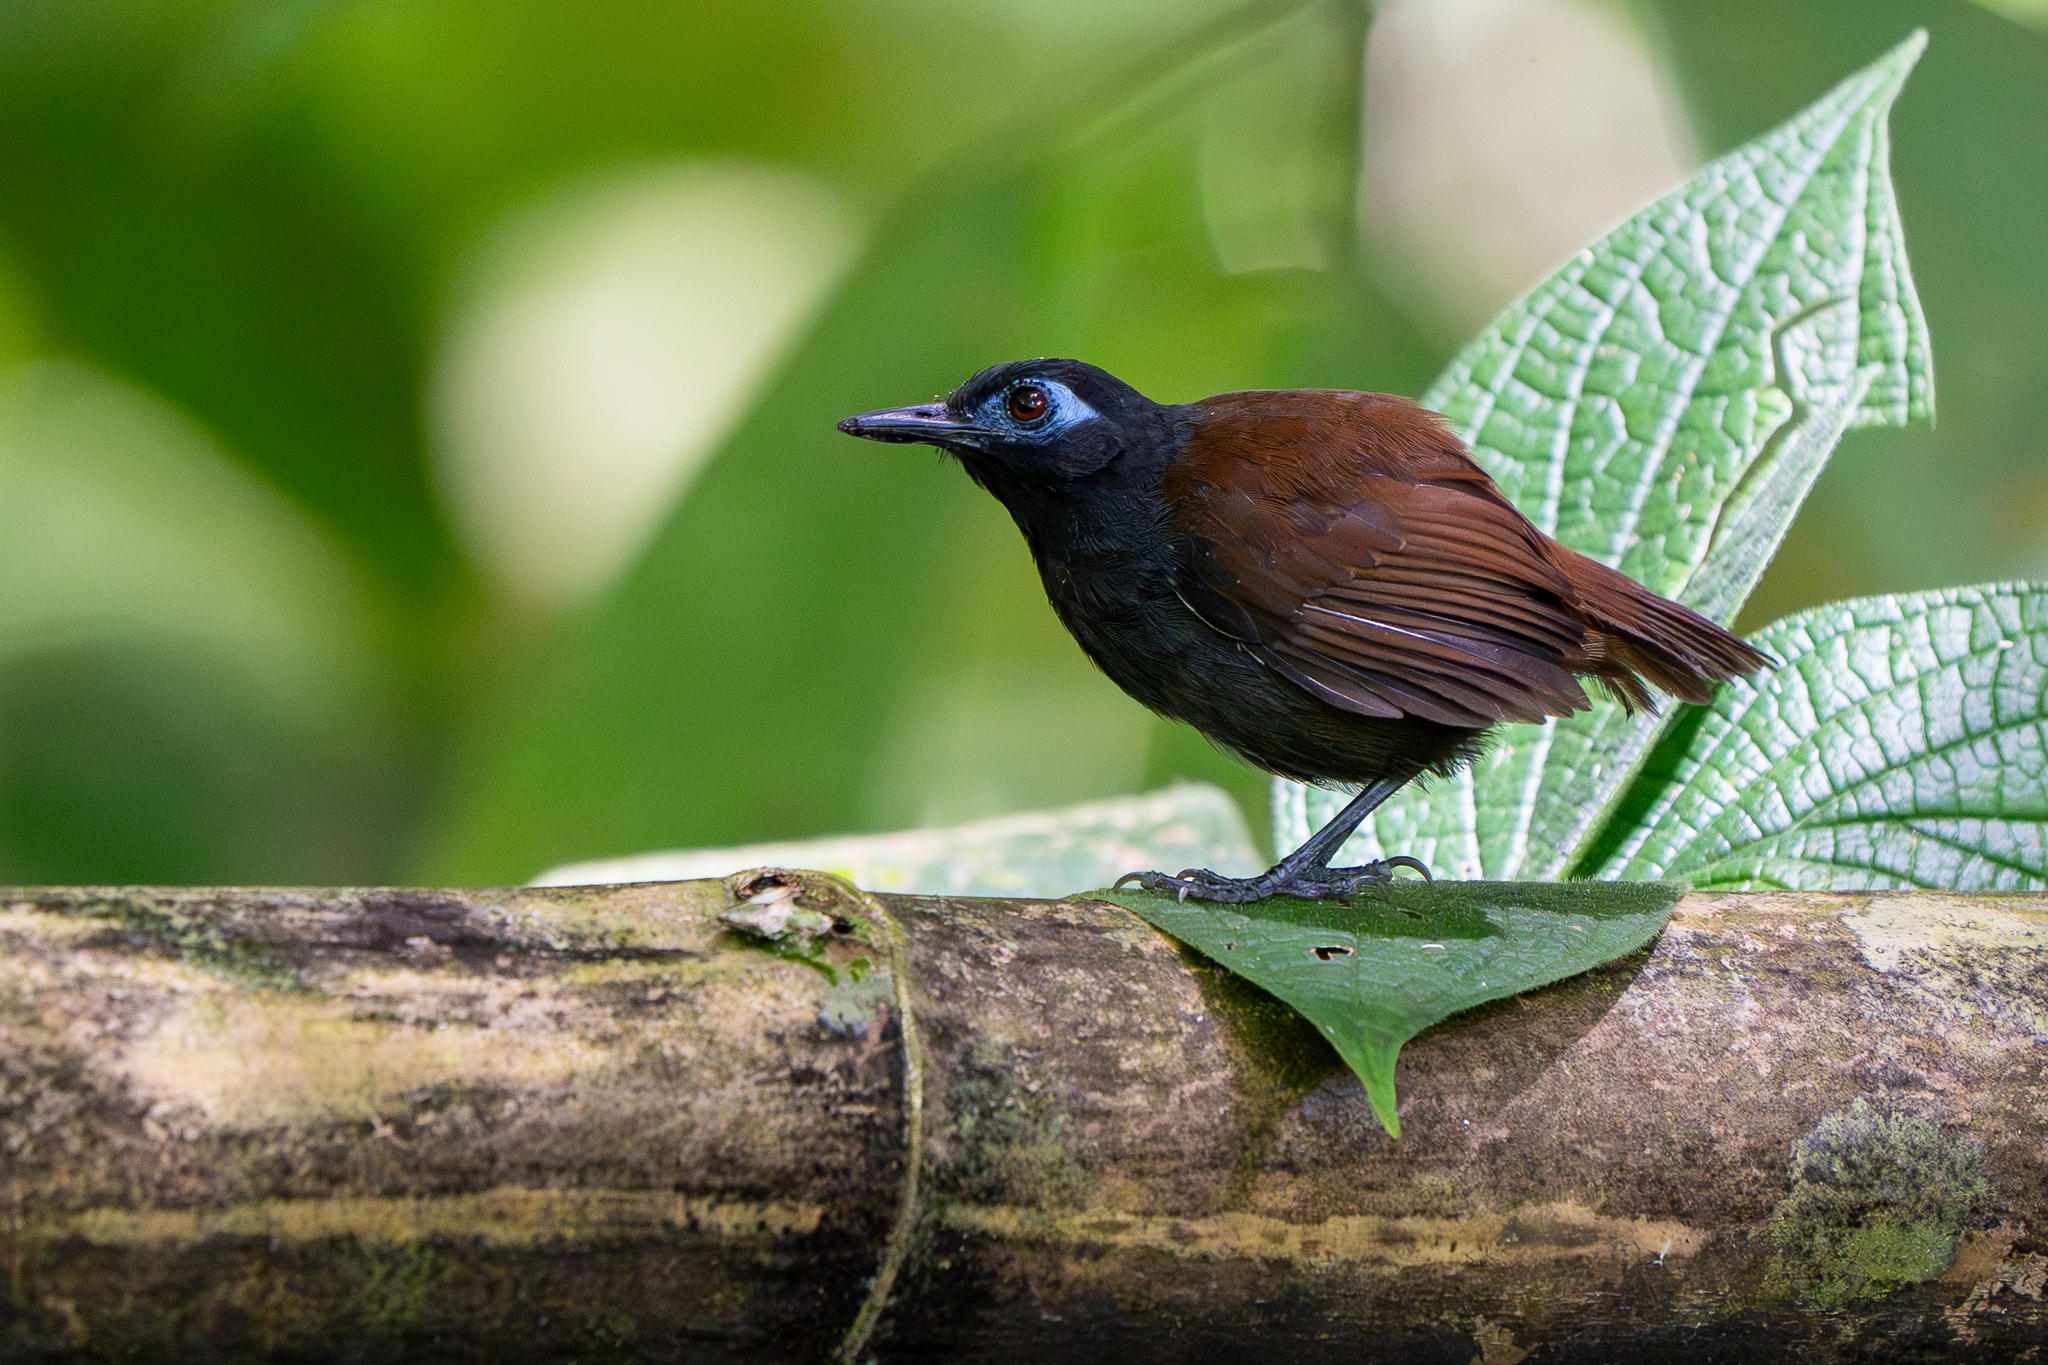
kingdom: Animalia
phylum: Chordata
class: Aves
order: Passeriformes
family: Thamnophilidae
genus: Myrmeciza
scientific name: Myrmeciza exsul
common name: Chestnut-backed antbird
